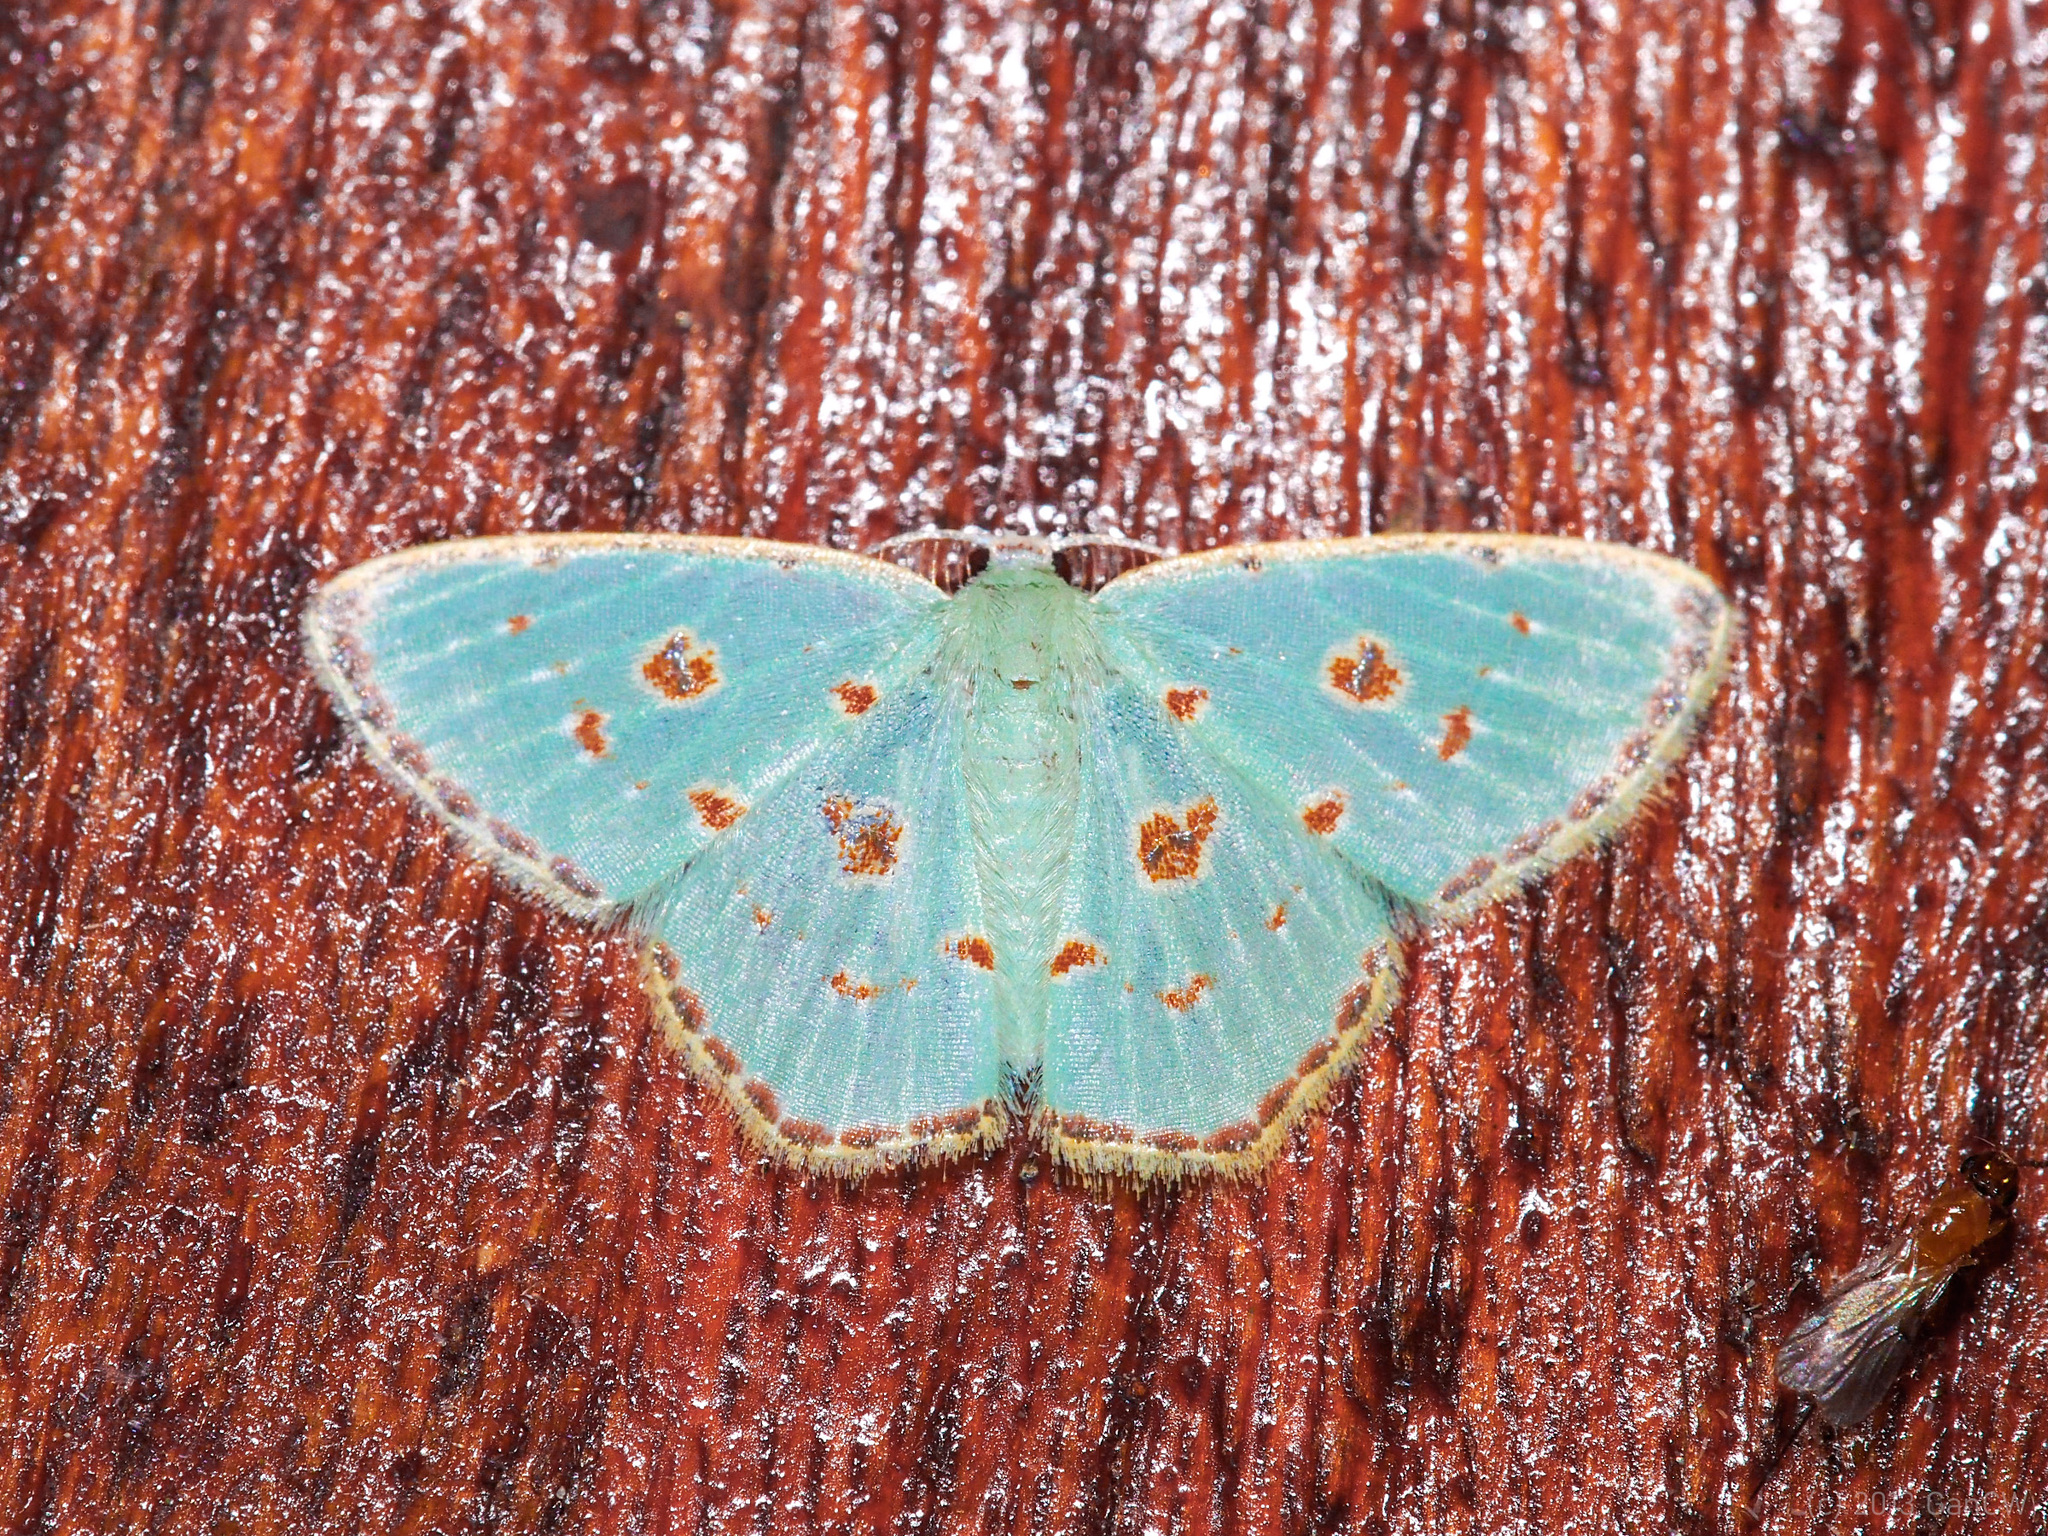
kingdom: Animalia
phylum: Arthropoda
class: Insecta
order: Lepidoptera
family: Geometridae
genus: Comostola
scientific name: Comostola laesaria
